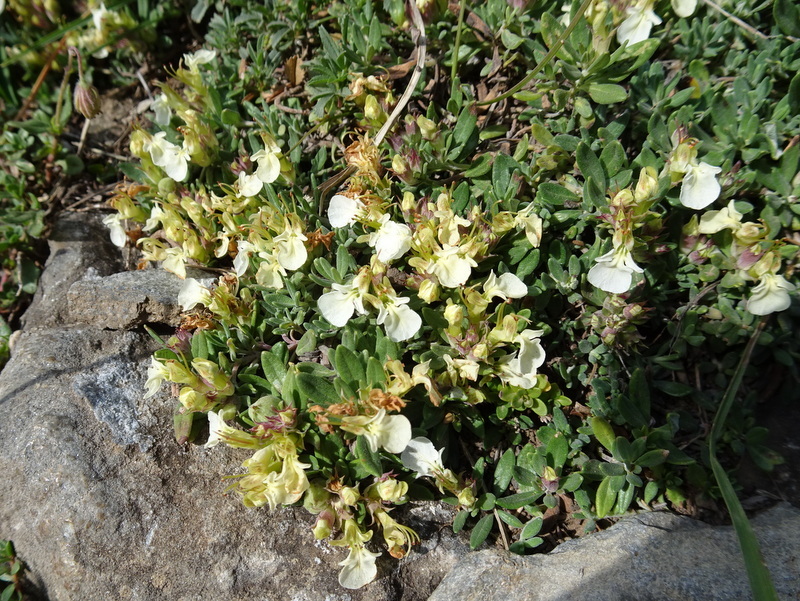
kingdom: Plantae
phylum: Tracheophyta
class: Magnoliopsida
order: Lamiales
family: Lamiaceae
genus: Teucrium
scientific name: Teucrium montanum
